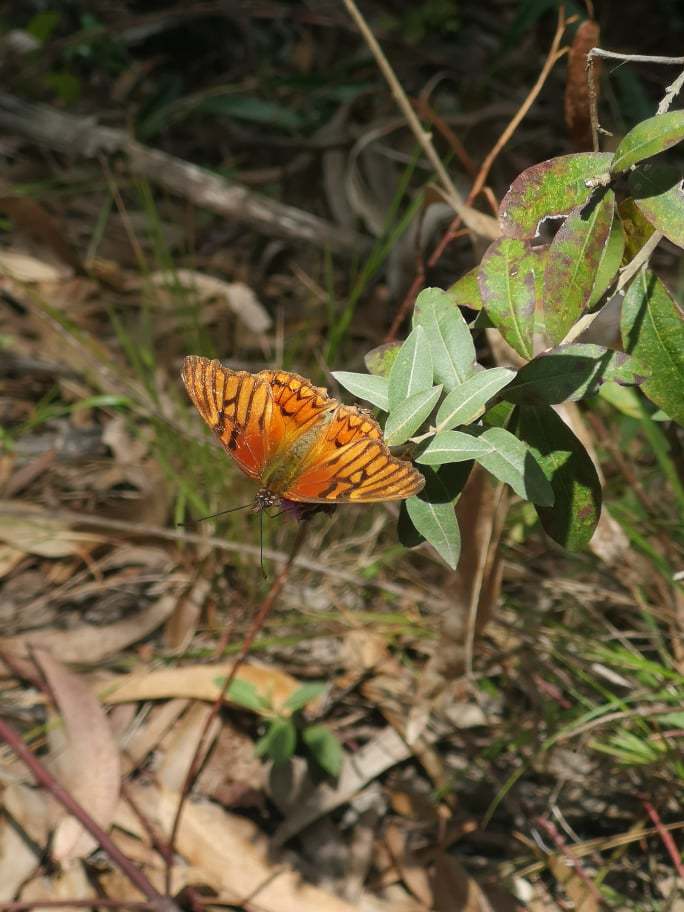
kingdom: Animalia
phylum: Arthropoda
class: Insecta
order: Lepidoptera
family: Nymphalidae
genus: Dione
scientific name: Dione glycera
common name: Andean silverspot
